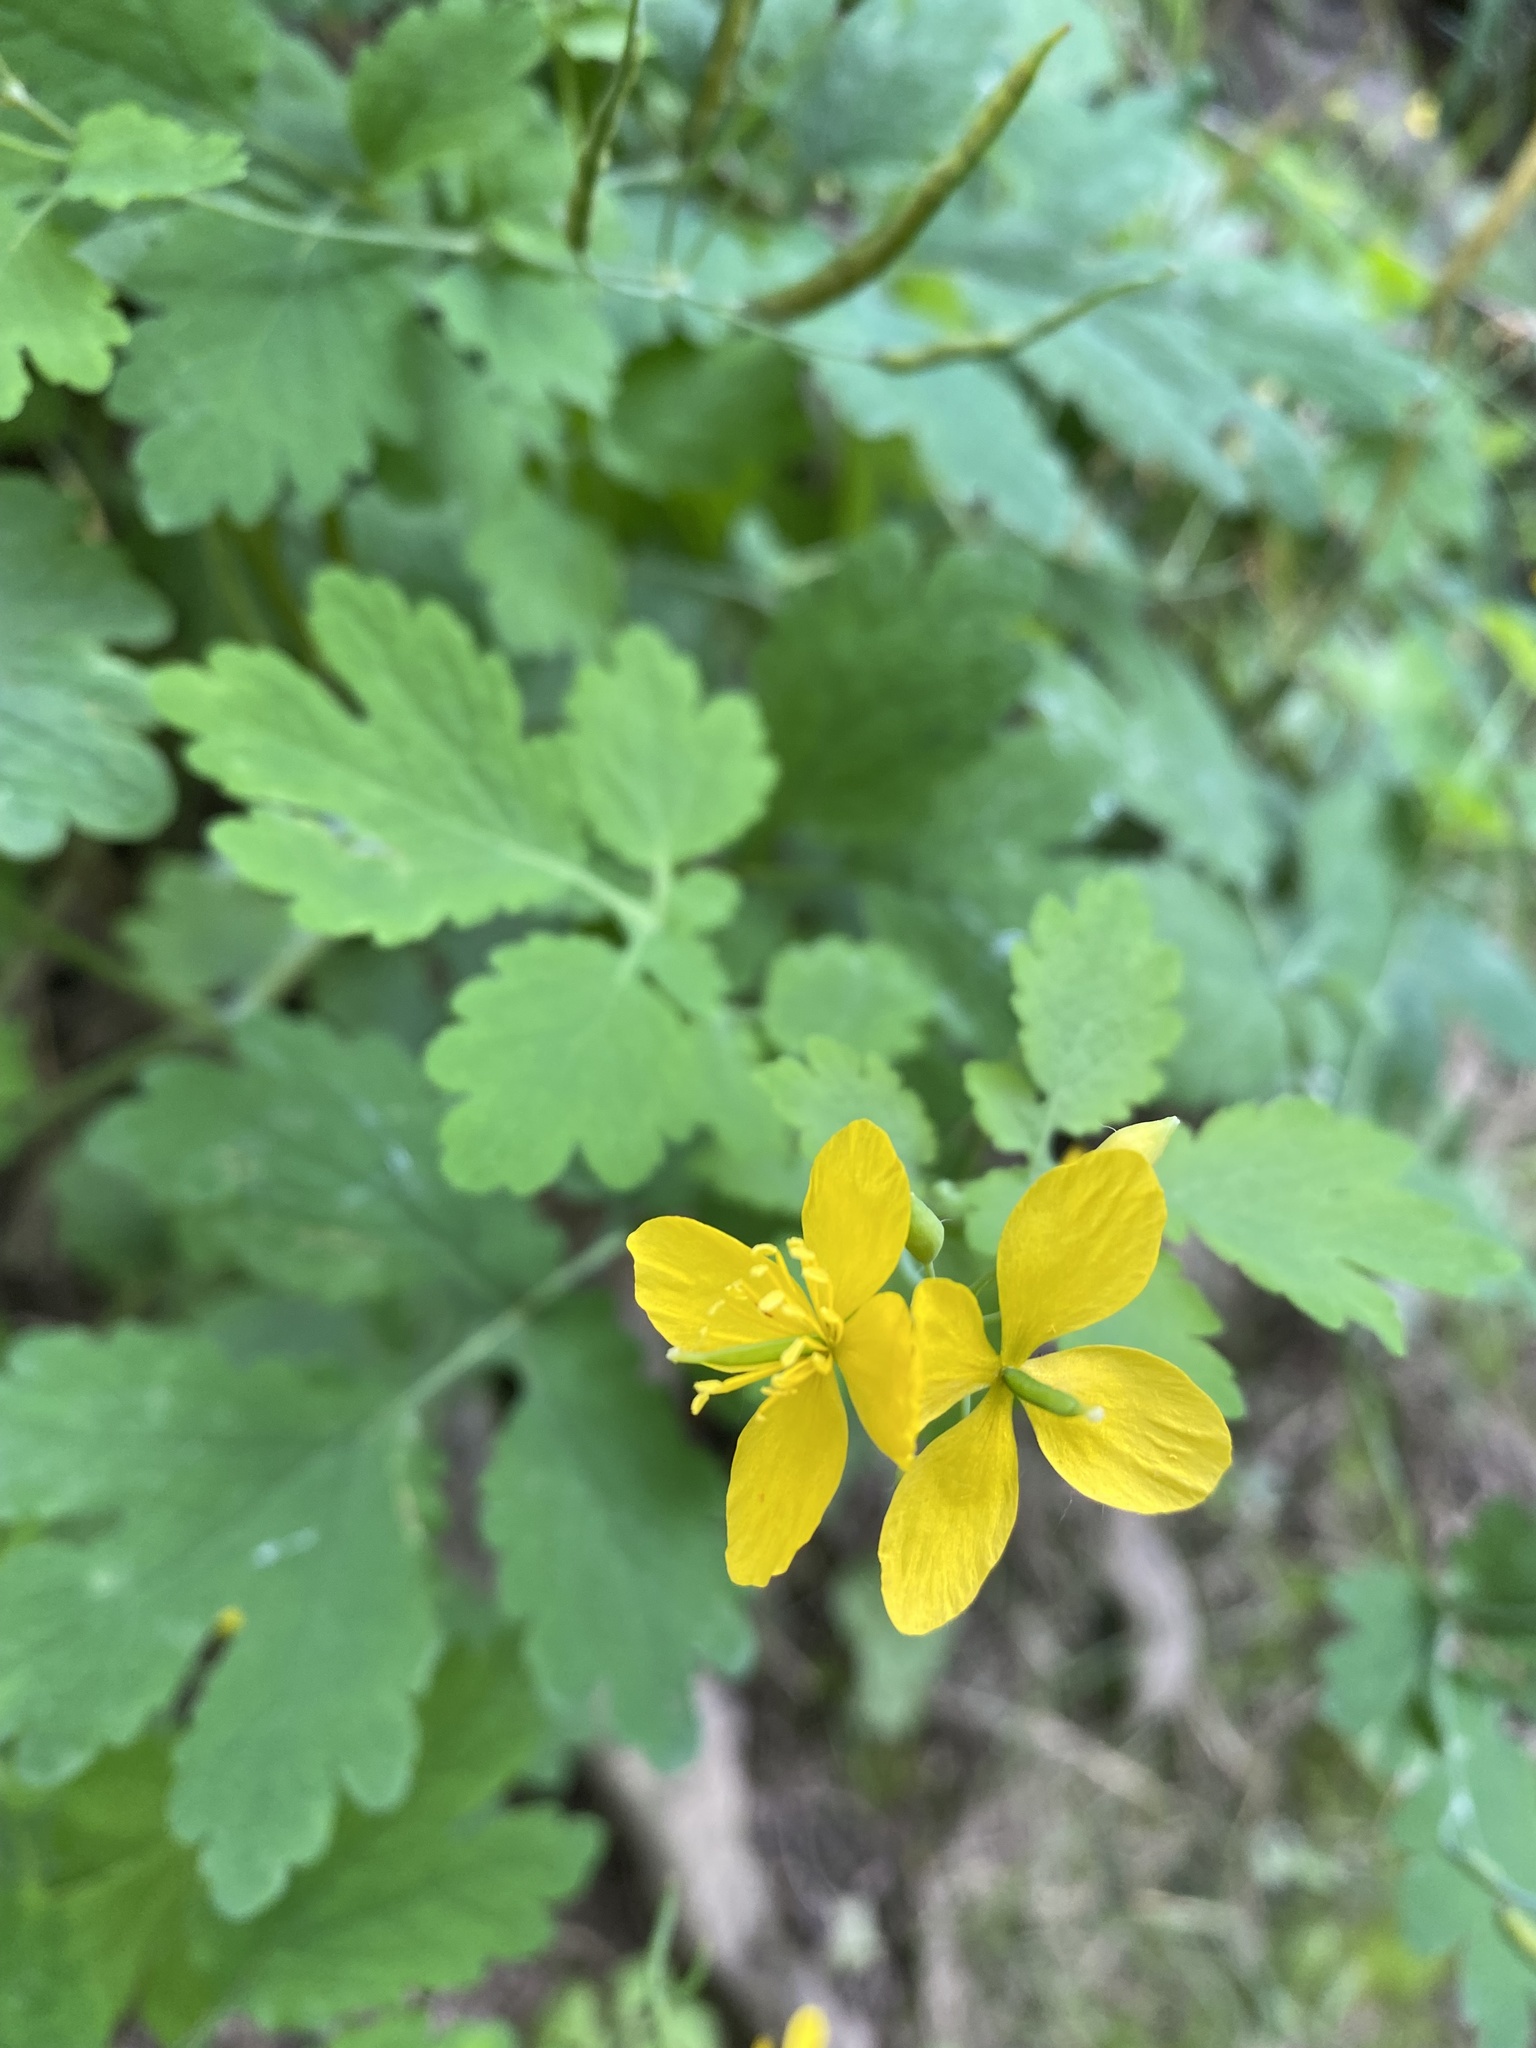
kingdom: Plantae
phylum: Tracheophyta
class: Magnoliopsida
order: Ranunculales
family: Papaveraceae
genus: Chelidonium
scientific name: Chelidonium majus
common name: Greater celandine
